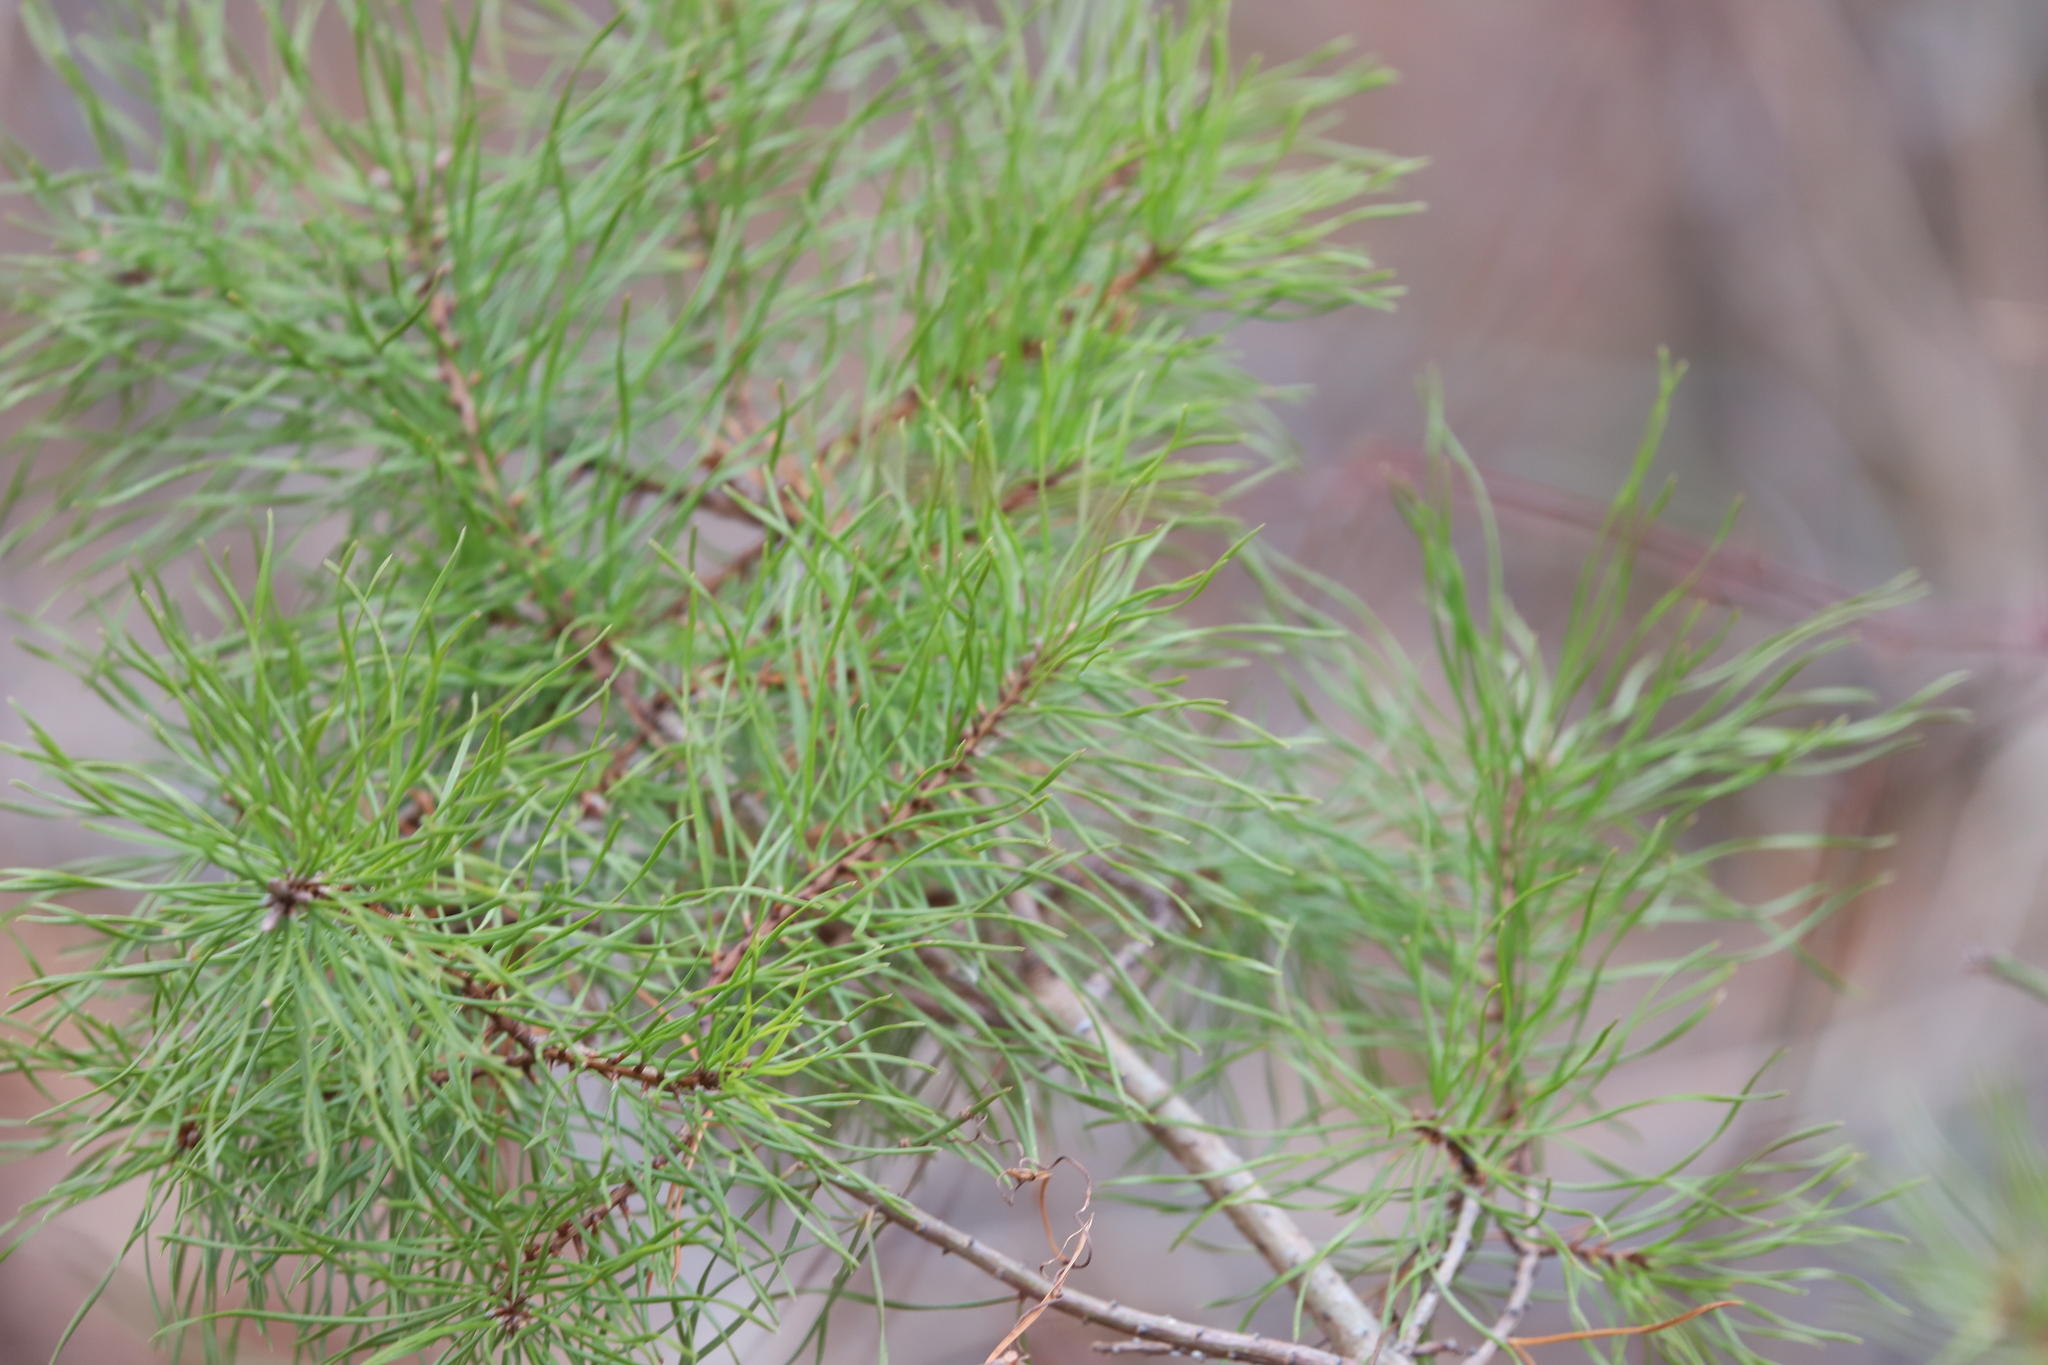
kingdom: Plantae
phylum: Tracheophyta
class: Pinopsida
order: Pinales
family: Pinaceae
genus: Pinus
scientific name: Pinus rigida
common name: Pitch pine
